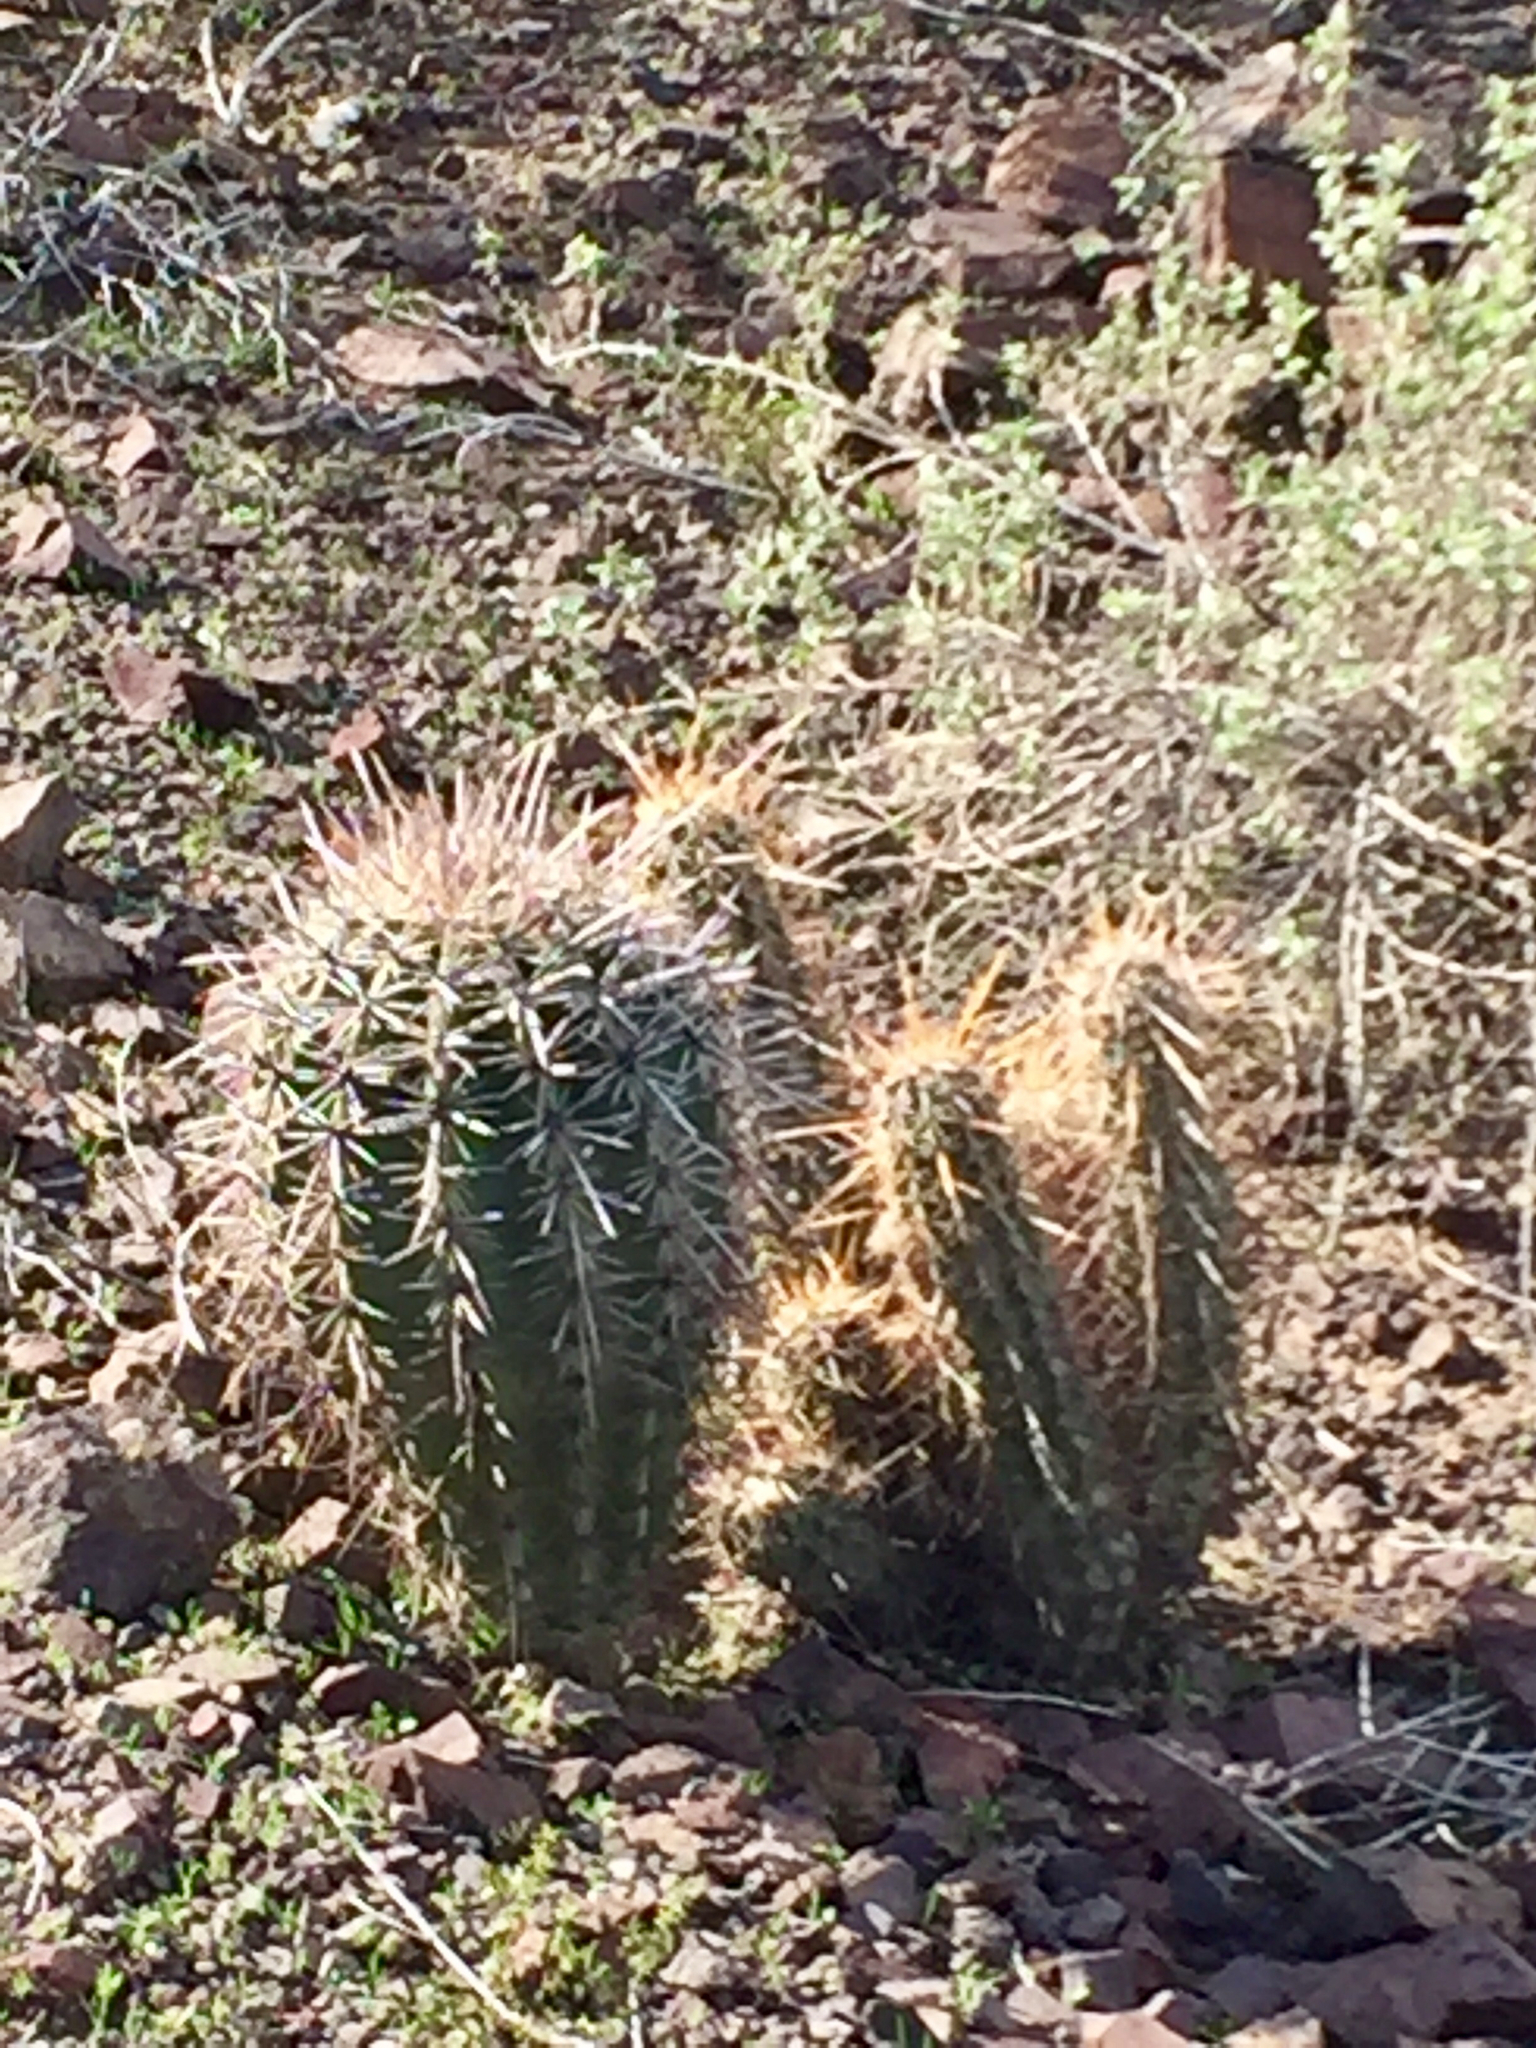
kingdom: Plantae
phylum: Tracheophyta
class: Magnoliopsida
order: Caryophyllales
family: Cactaceae
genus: Echinocereus
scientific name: Echinocereus engelmannii
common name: Engelmann's hedgehog cactus
